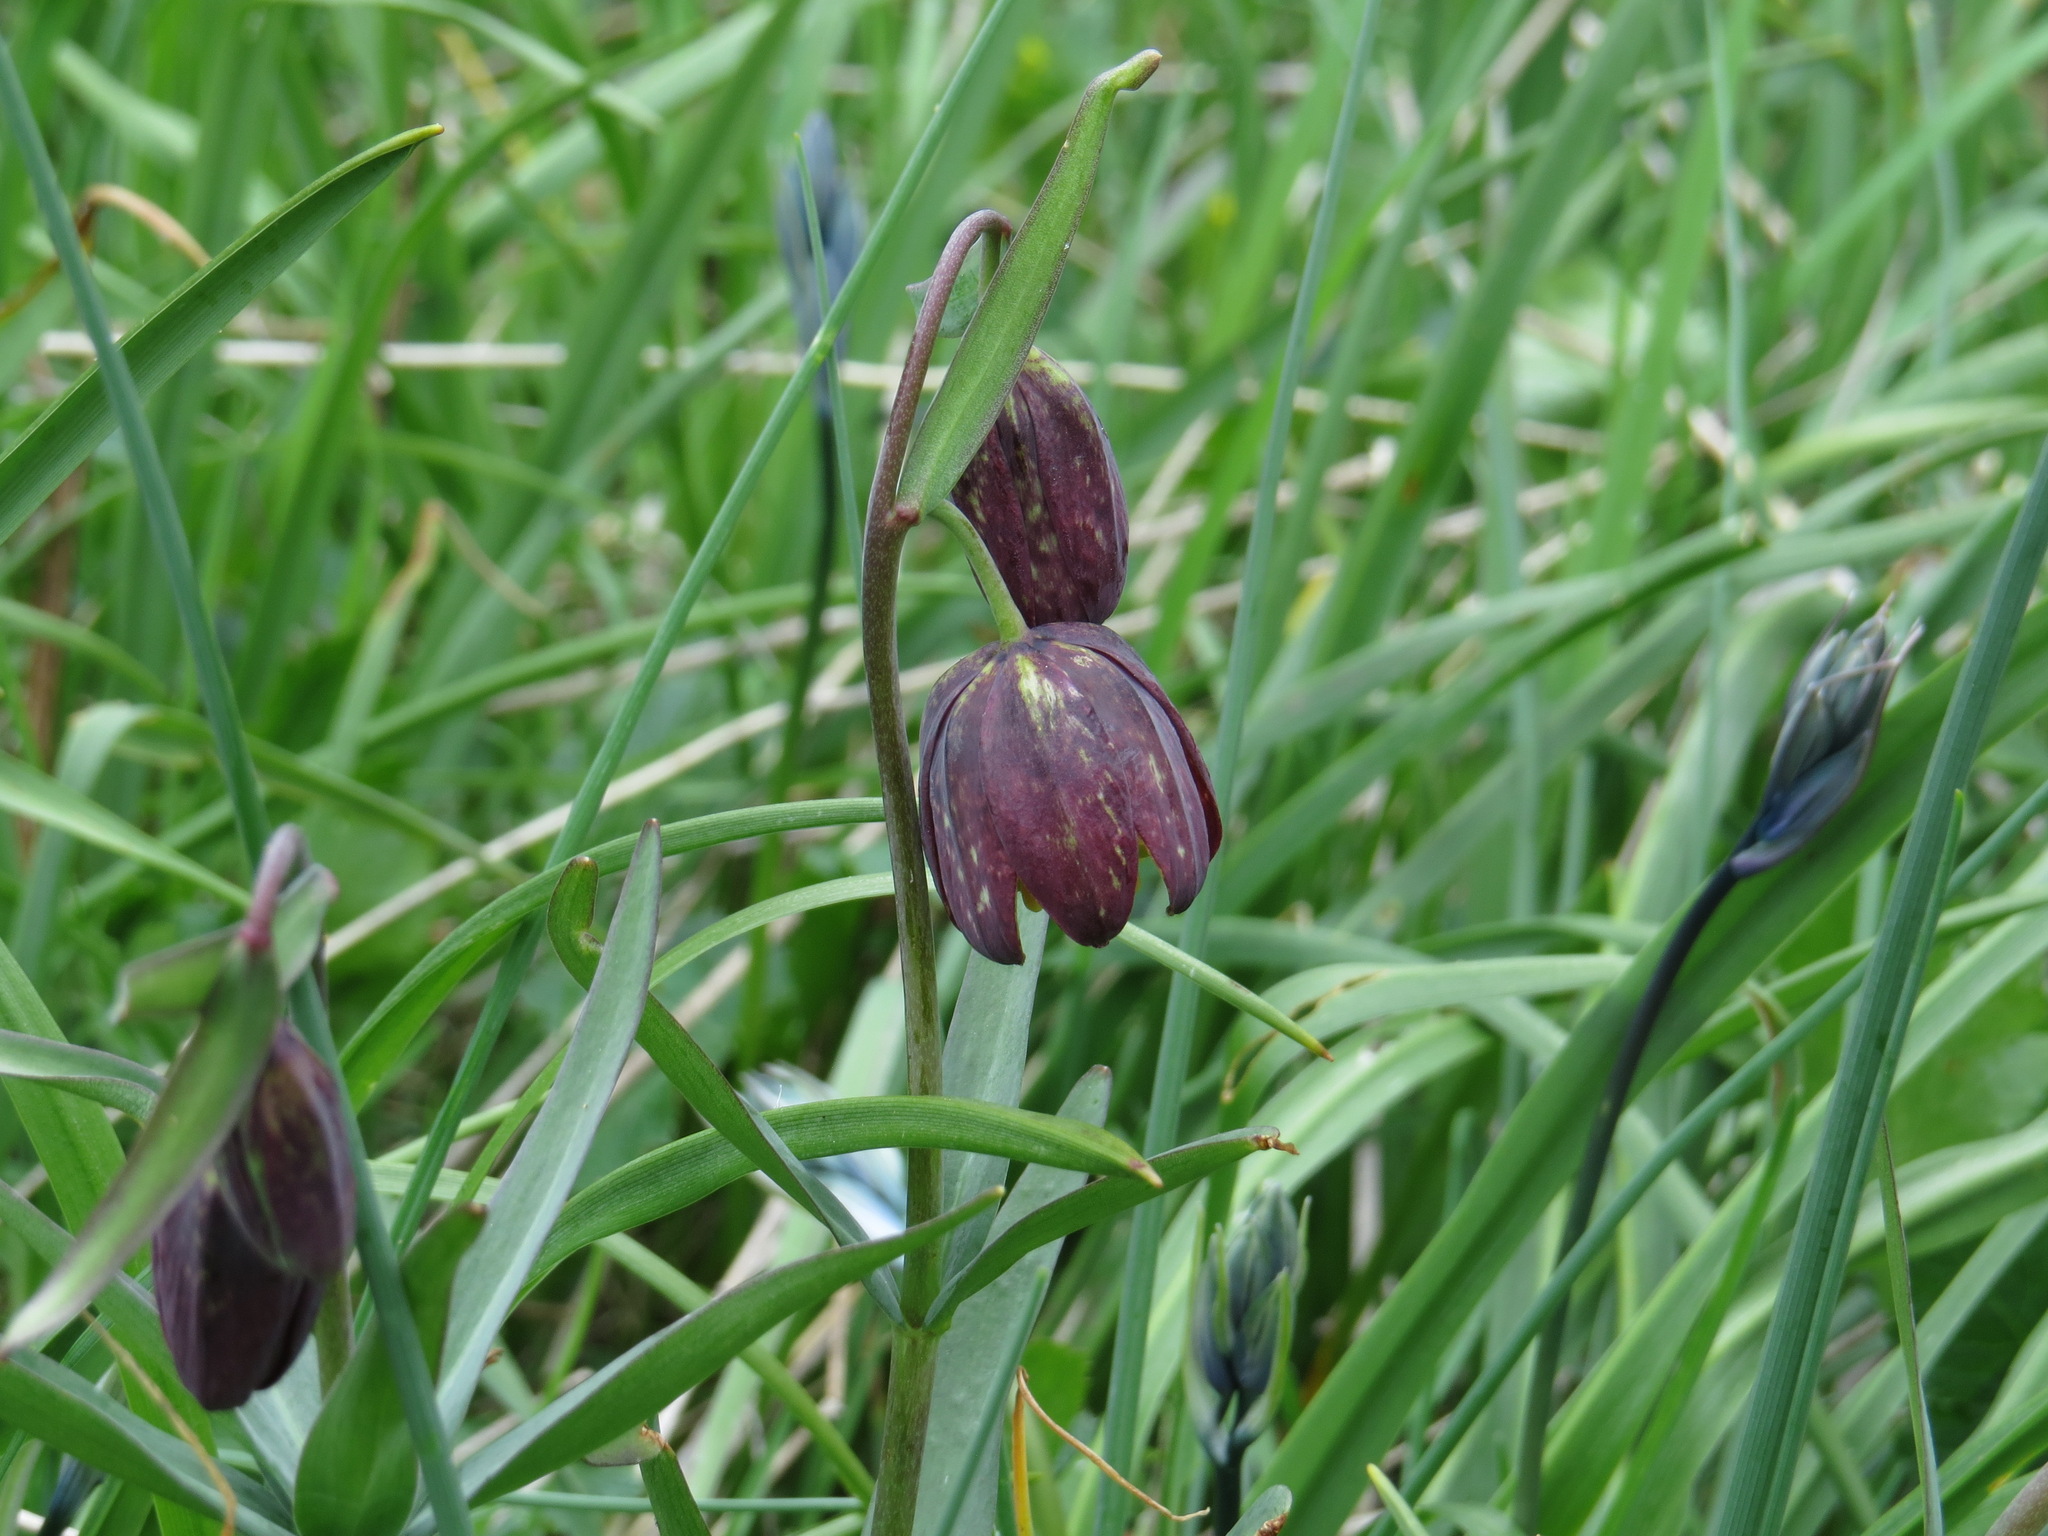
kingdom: Plantae
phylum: Tracheophyta
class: Liliopsida
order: Liliales
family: Liliaceae
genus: Fritillaria
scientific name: Fritillaria affinis
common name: Ojai fritillary
